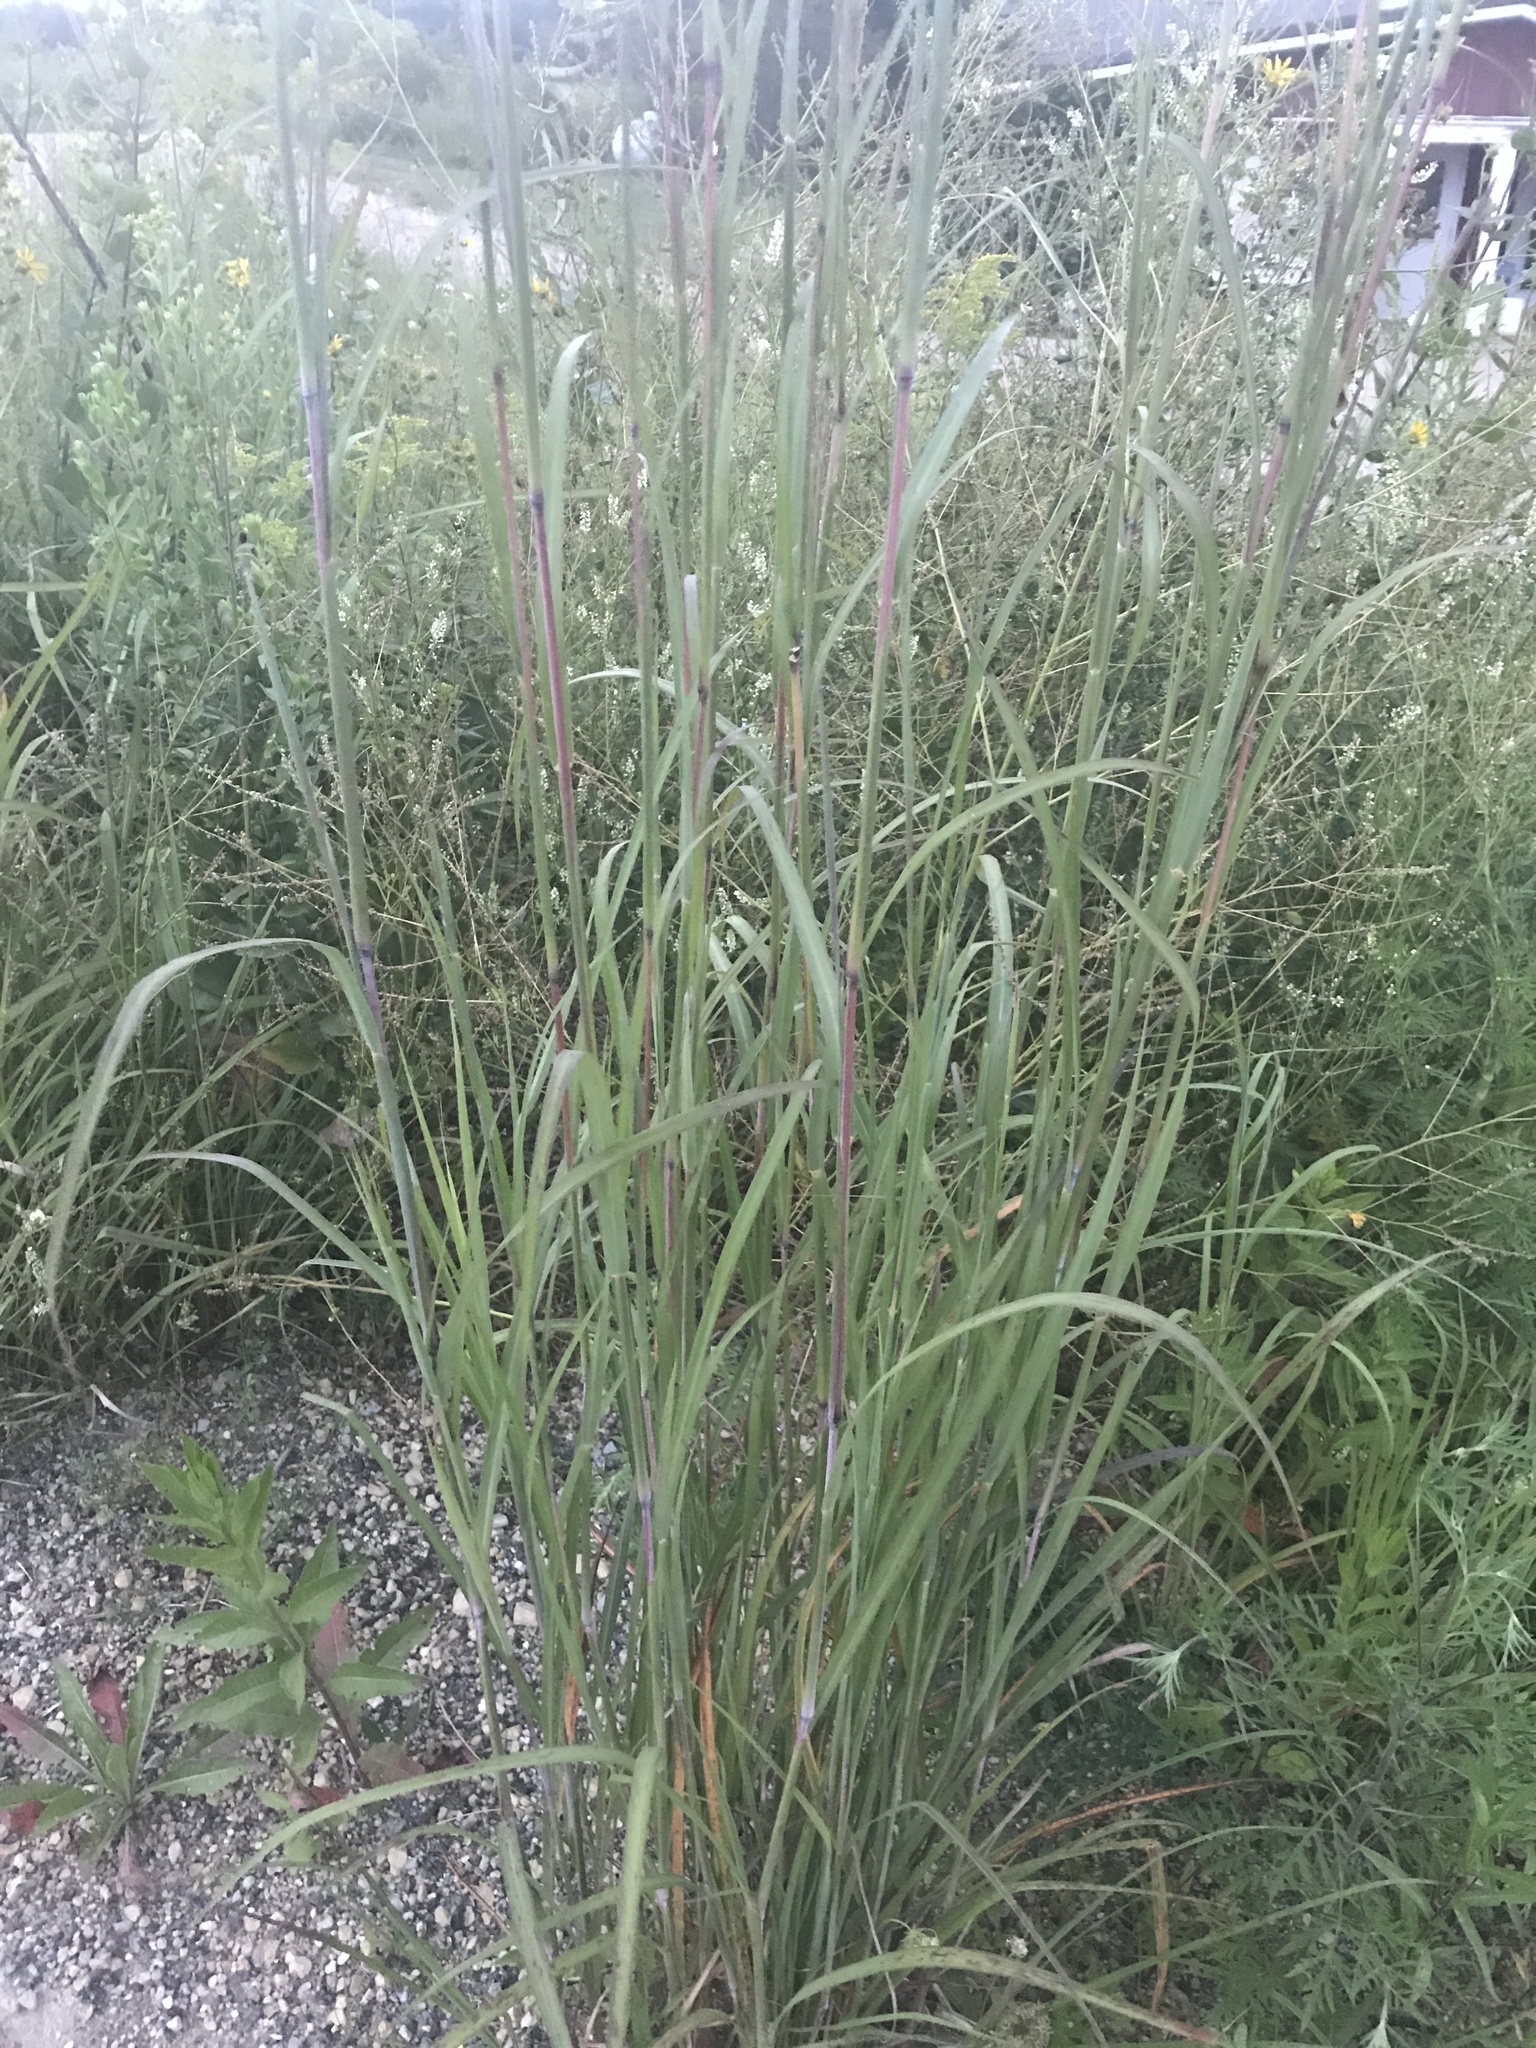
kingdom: Plantae
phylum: Tracheophyta
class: Liliopsida
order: Poales
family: Poaceae
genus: Andropogon
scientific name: Andropogon gerardi
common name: Big bluestem
